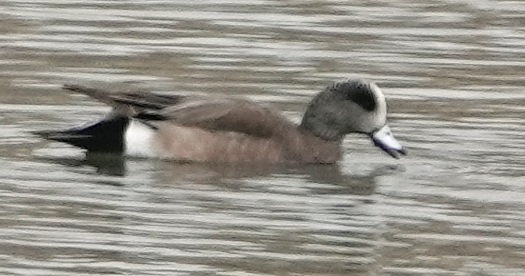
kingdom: Animalia
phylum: Chordata
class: Aves
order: Anseriformes
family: Anatidae
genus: Mareca
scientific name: Mareca americana
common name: American wigeon
